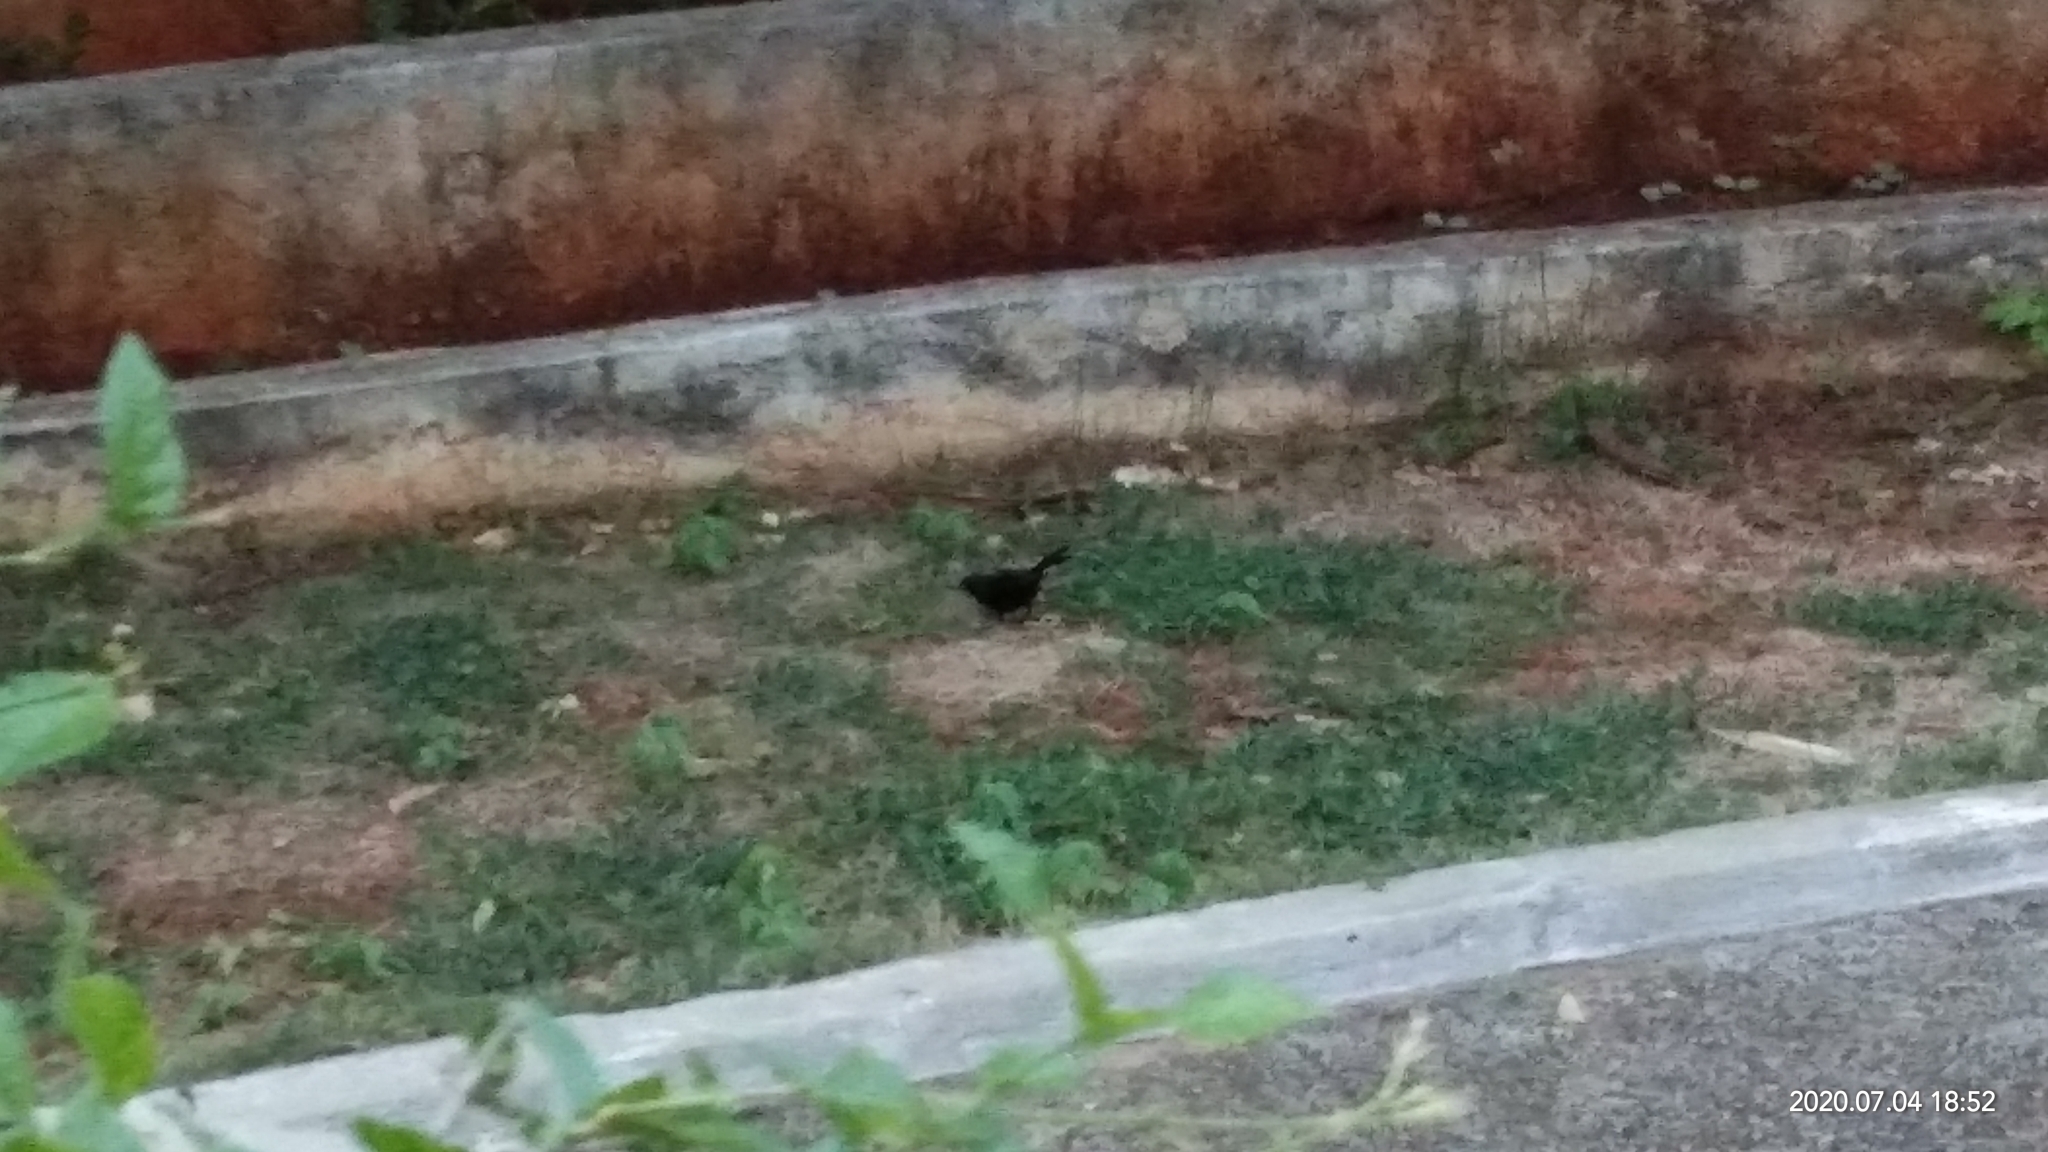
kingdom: Animalia
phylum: Chordata
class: Aves
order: Passeriformes
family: Muscicapidae
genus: Saxicoloides
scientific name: Saxicoloides fulicatus
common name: Indian robin
